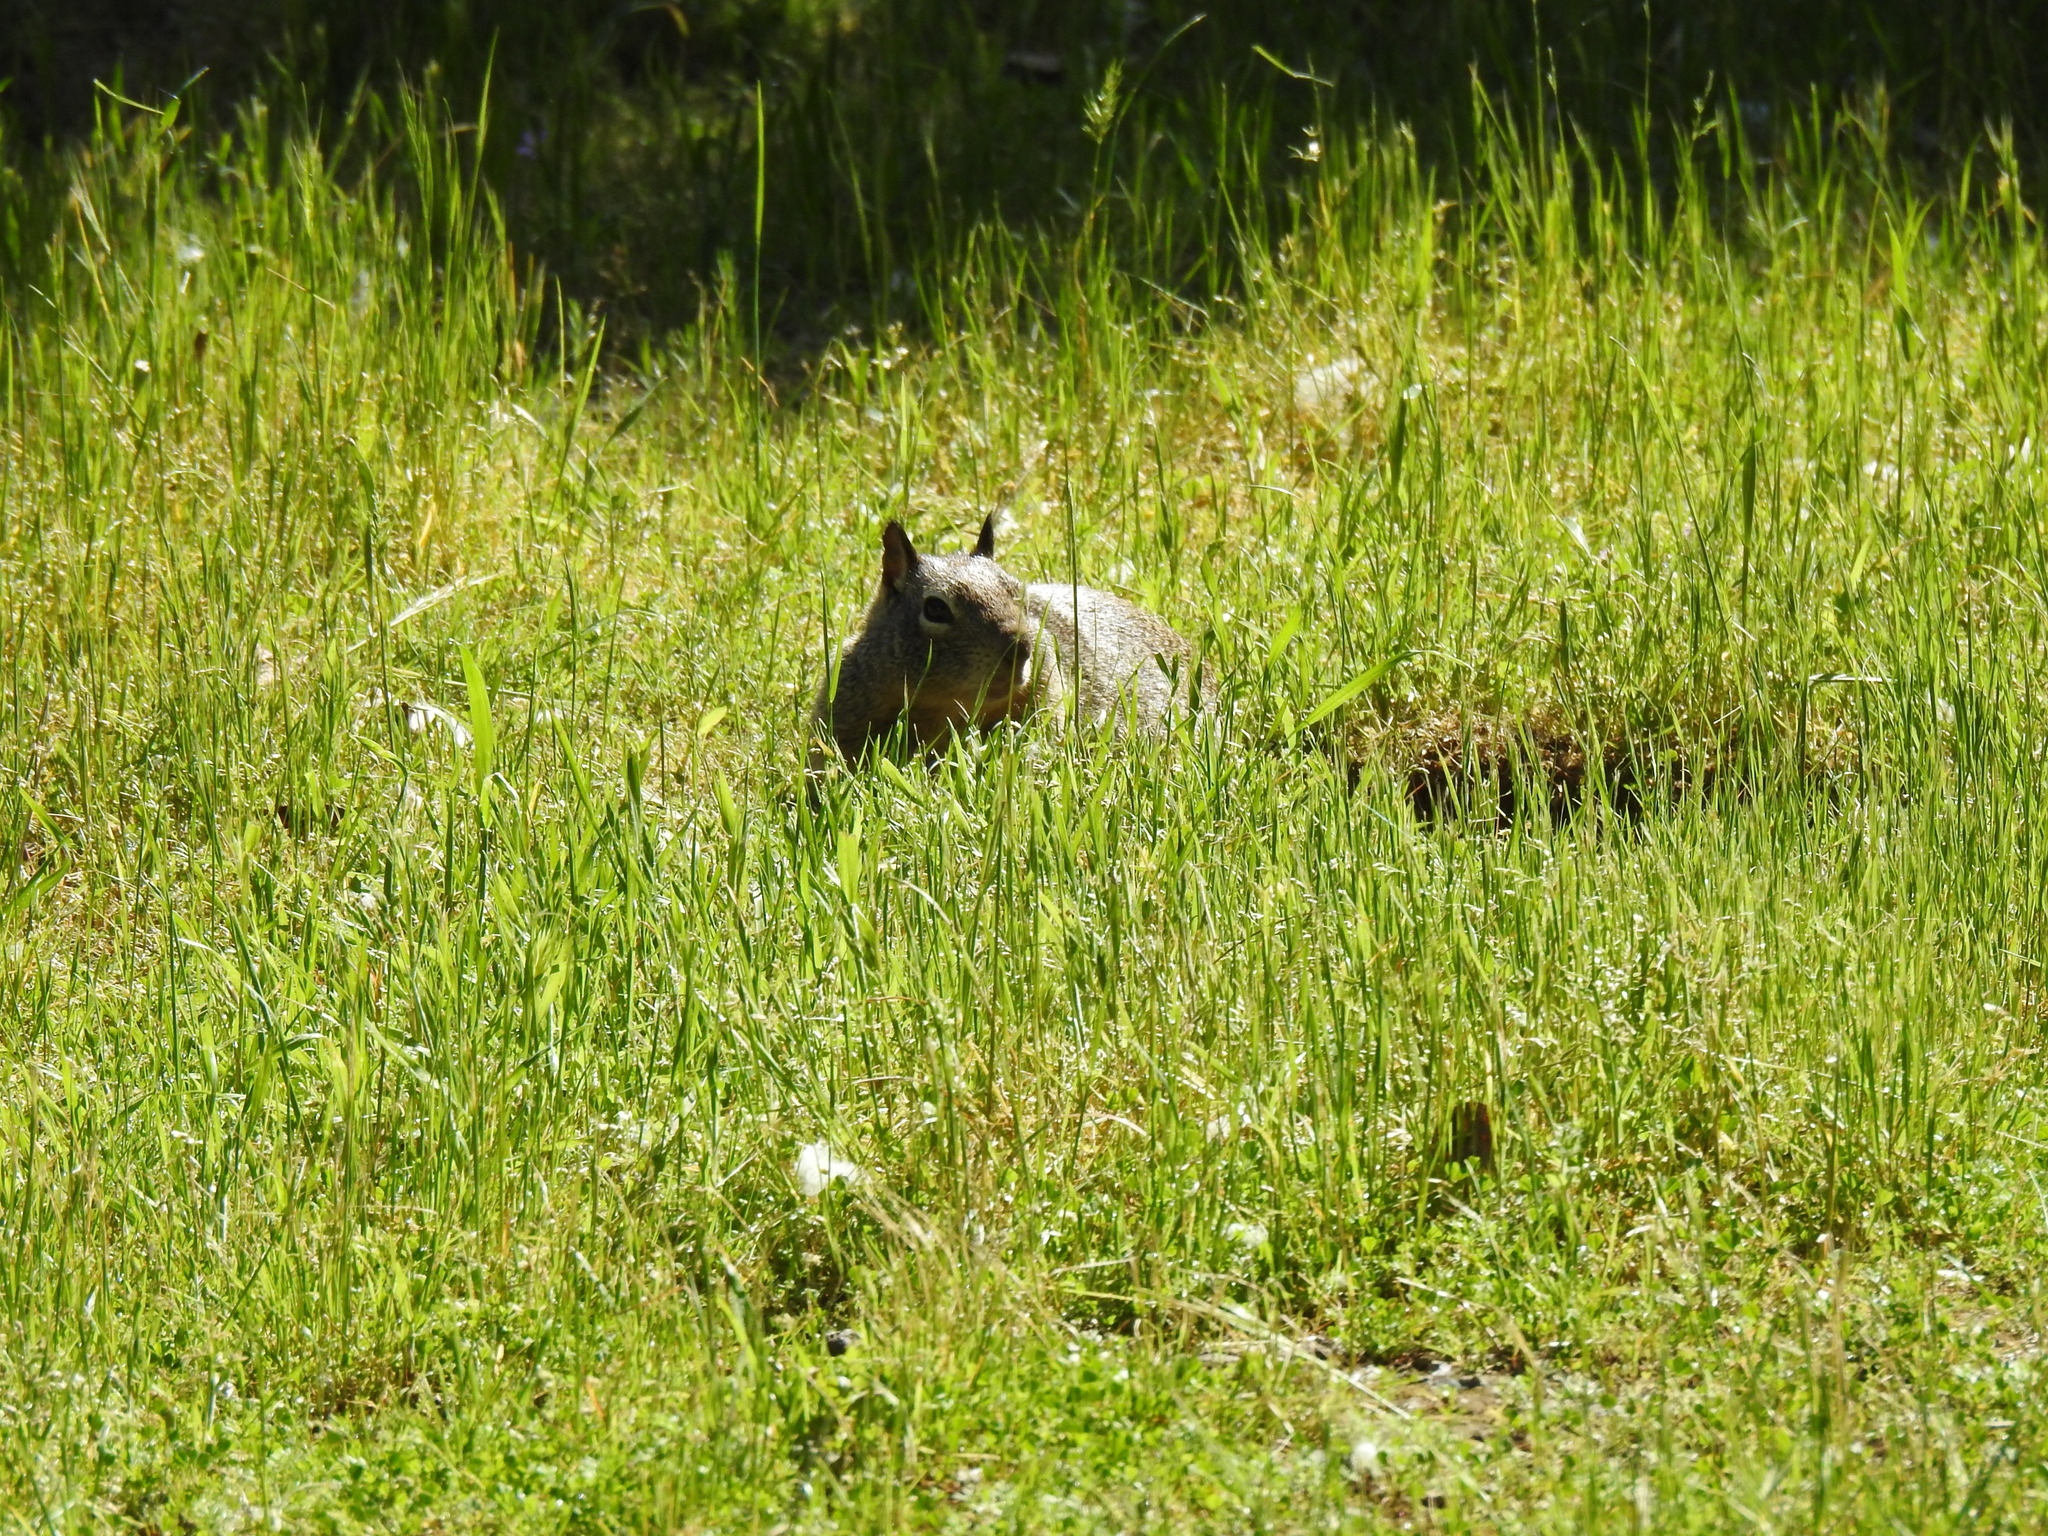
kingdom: Animalia
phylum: Chordata
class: Mammalia
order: Rodentia
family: Sciuridae
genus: Otospermophilus
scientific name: Otospermophilus beecheyi
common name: California ground squirrel
